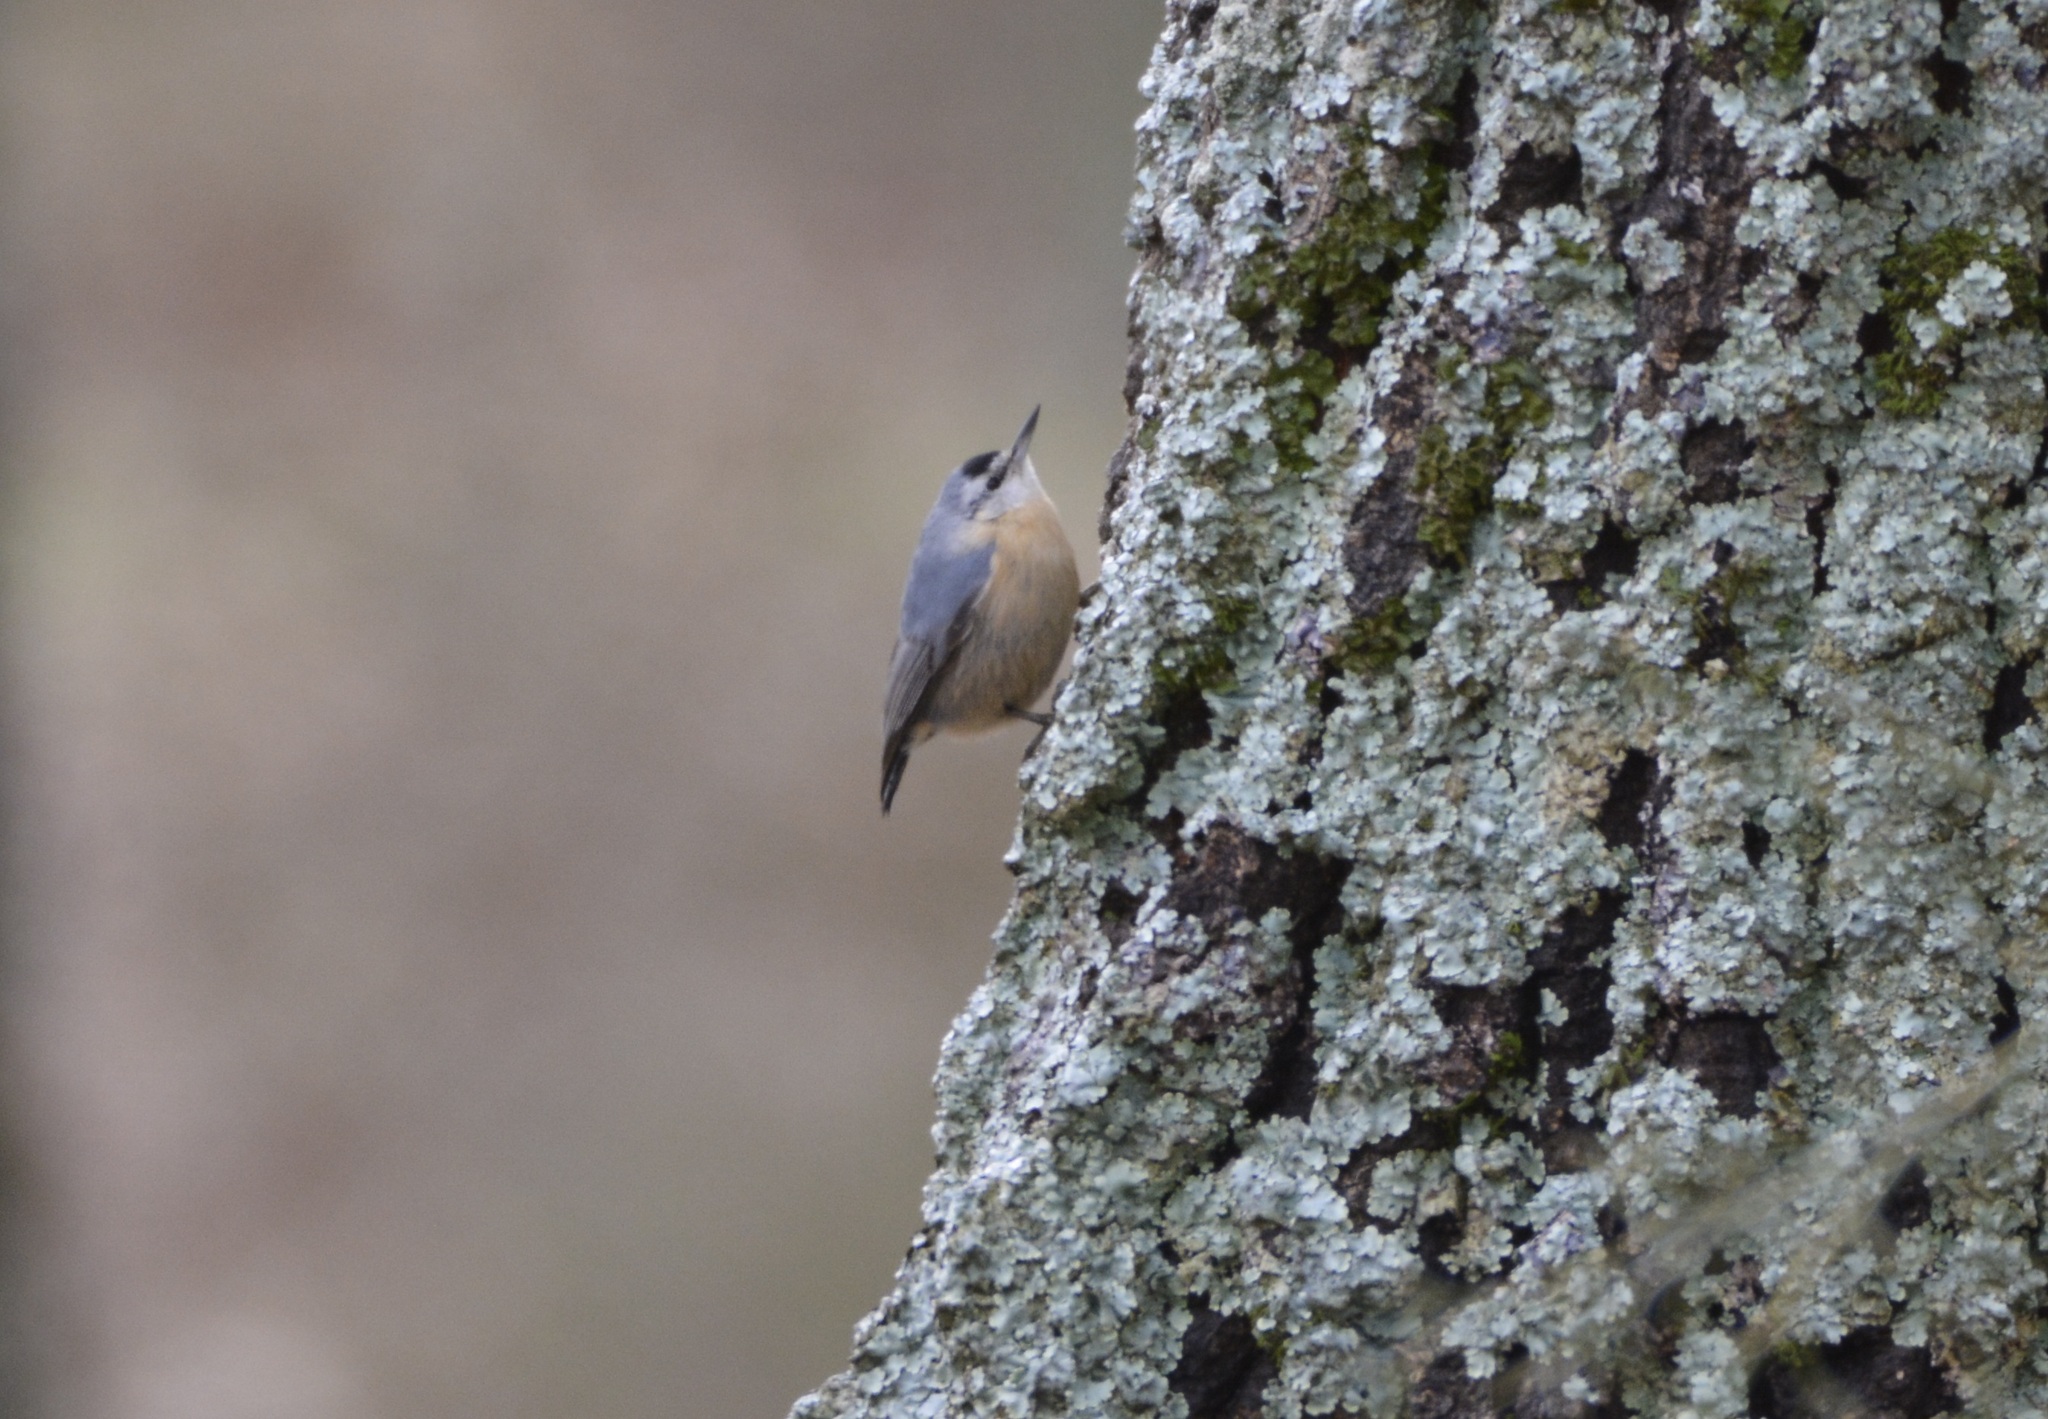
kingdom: Animalia
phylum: Chordata
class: Aves
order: Passeriformes
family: Sittidae
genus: Sitta
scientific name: Sitta ledanti
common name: Algerian nuthatch
